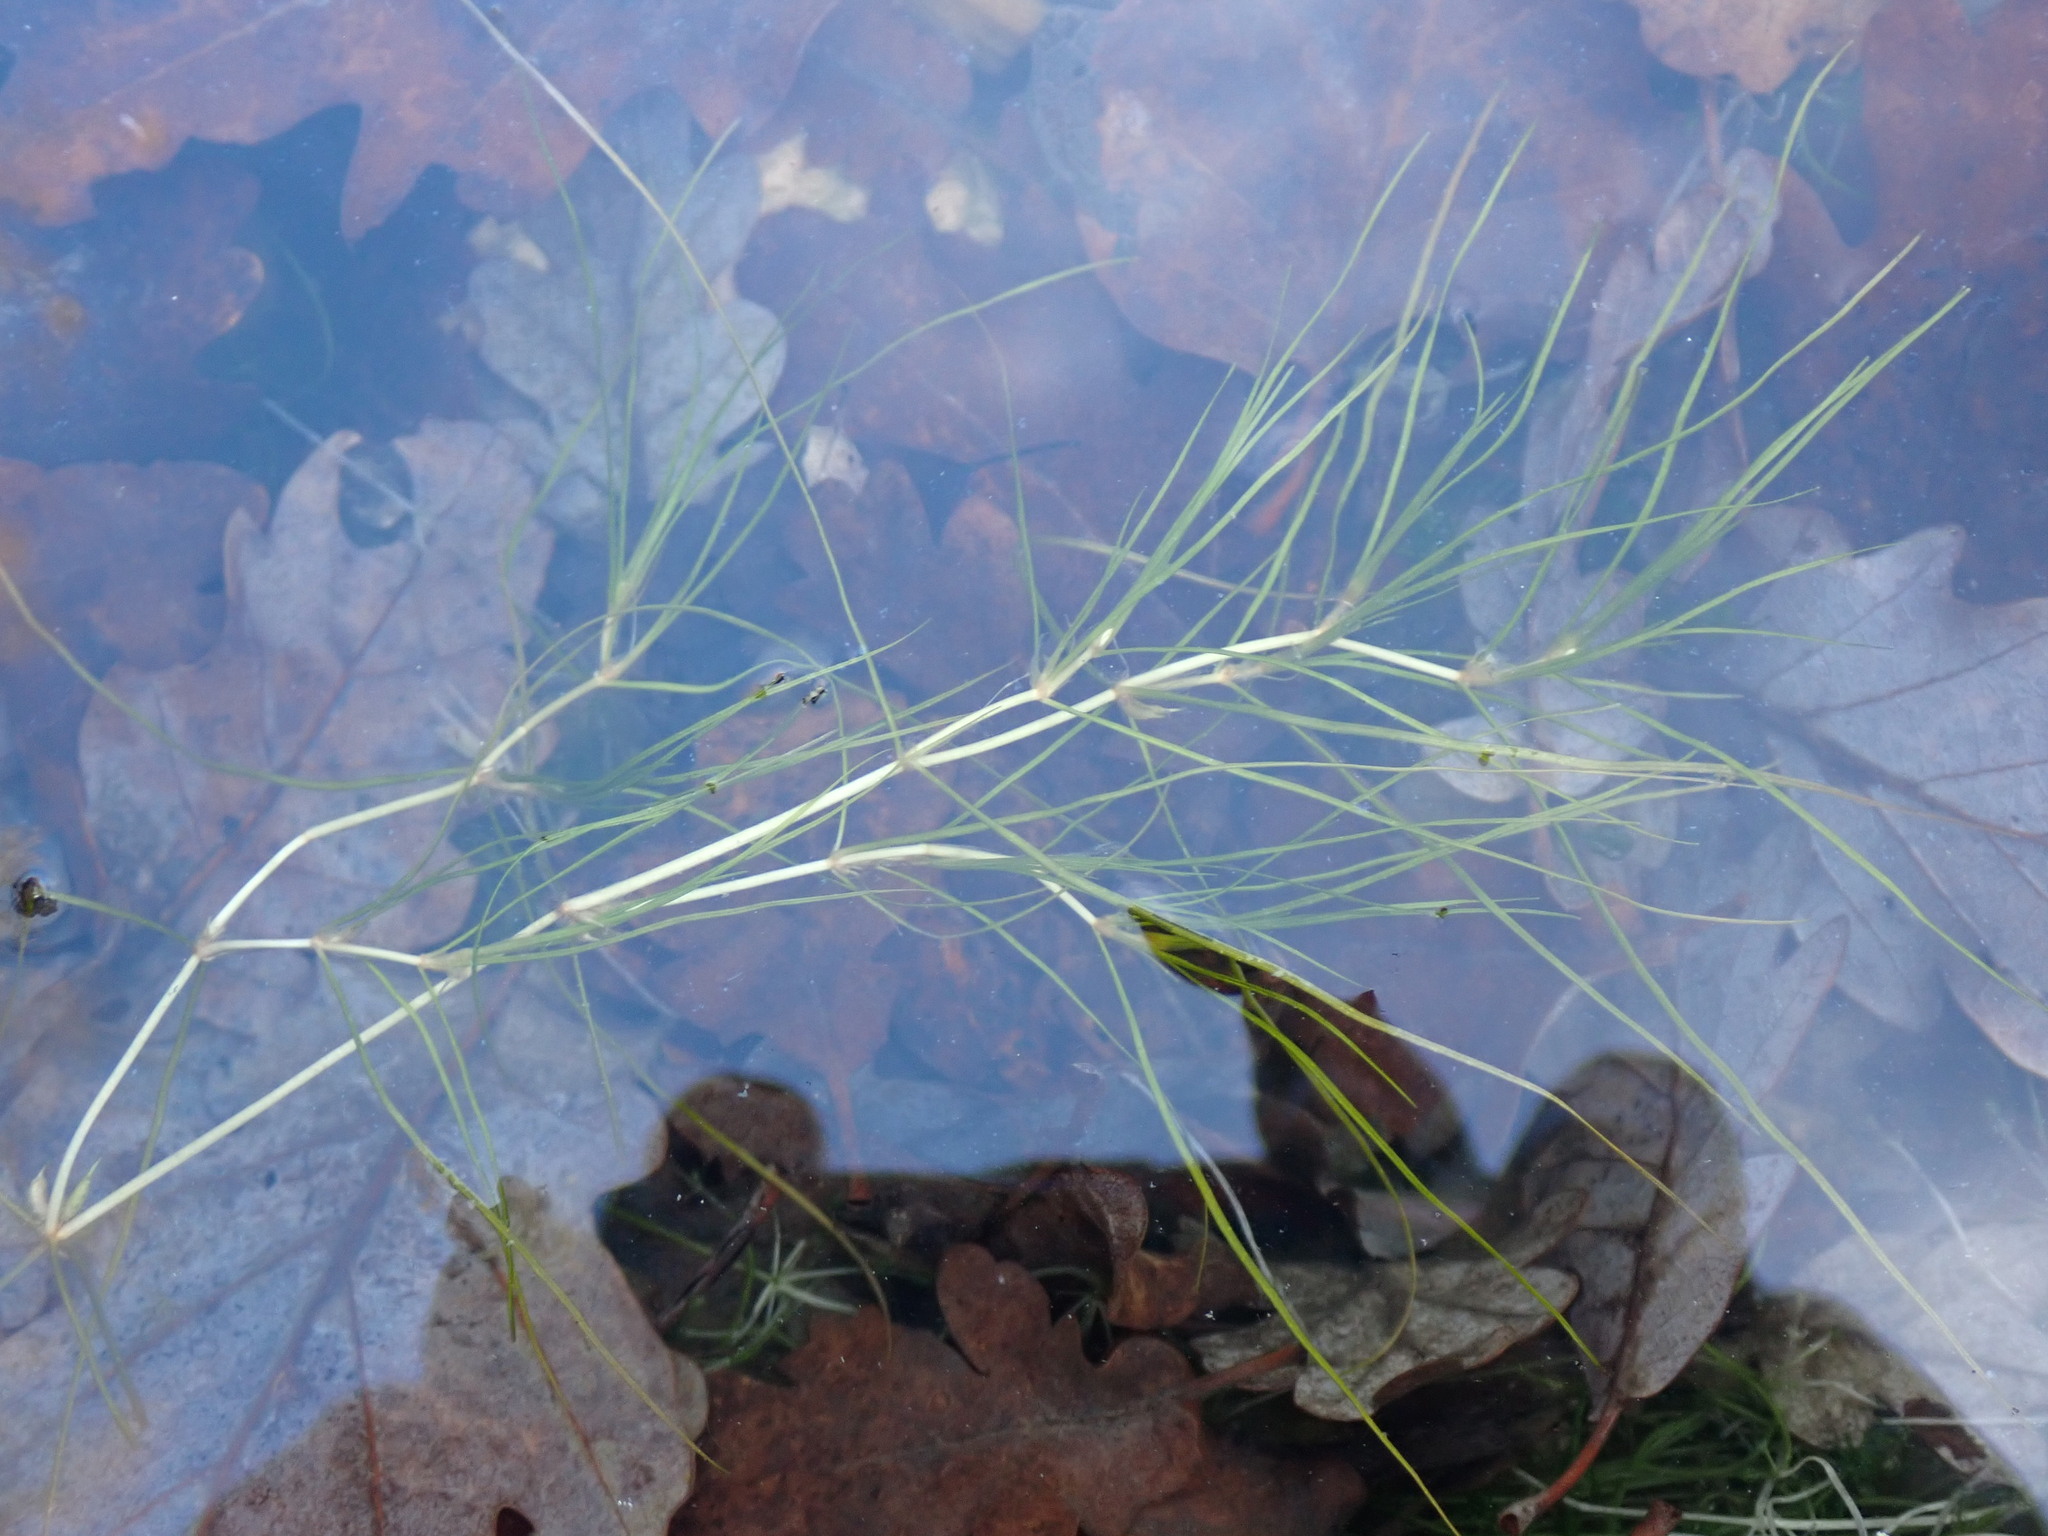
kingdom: Plantae
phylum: Tracheophyta
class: Liliopsida
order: Alismatales
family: Potamogetonaceae
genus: Zannichellia
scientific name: Zannichellia palustris
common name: Horned pondweed
